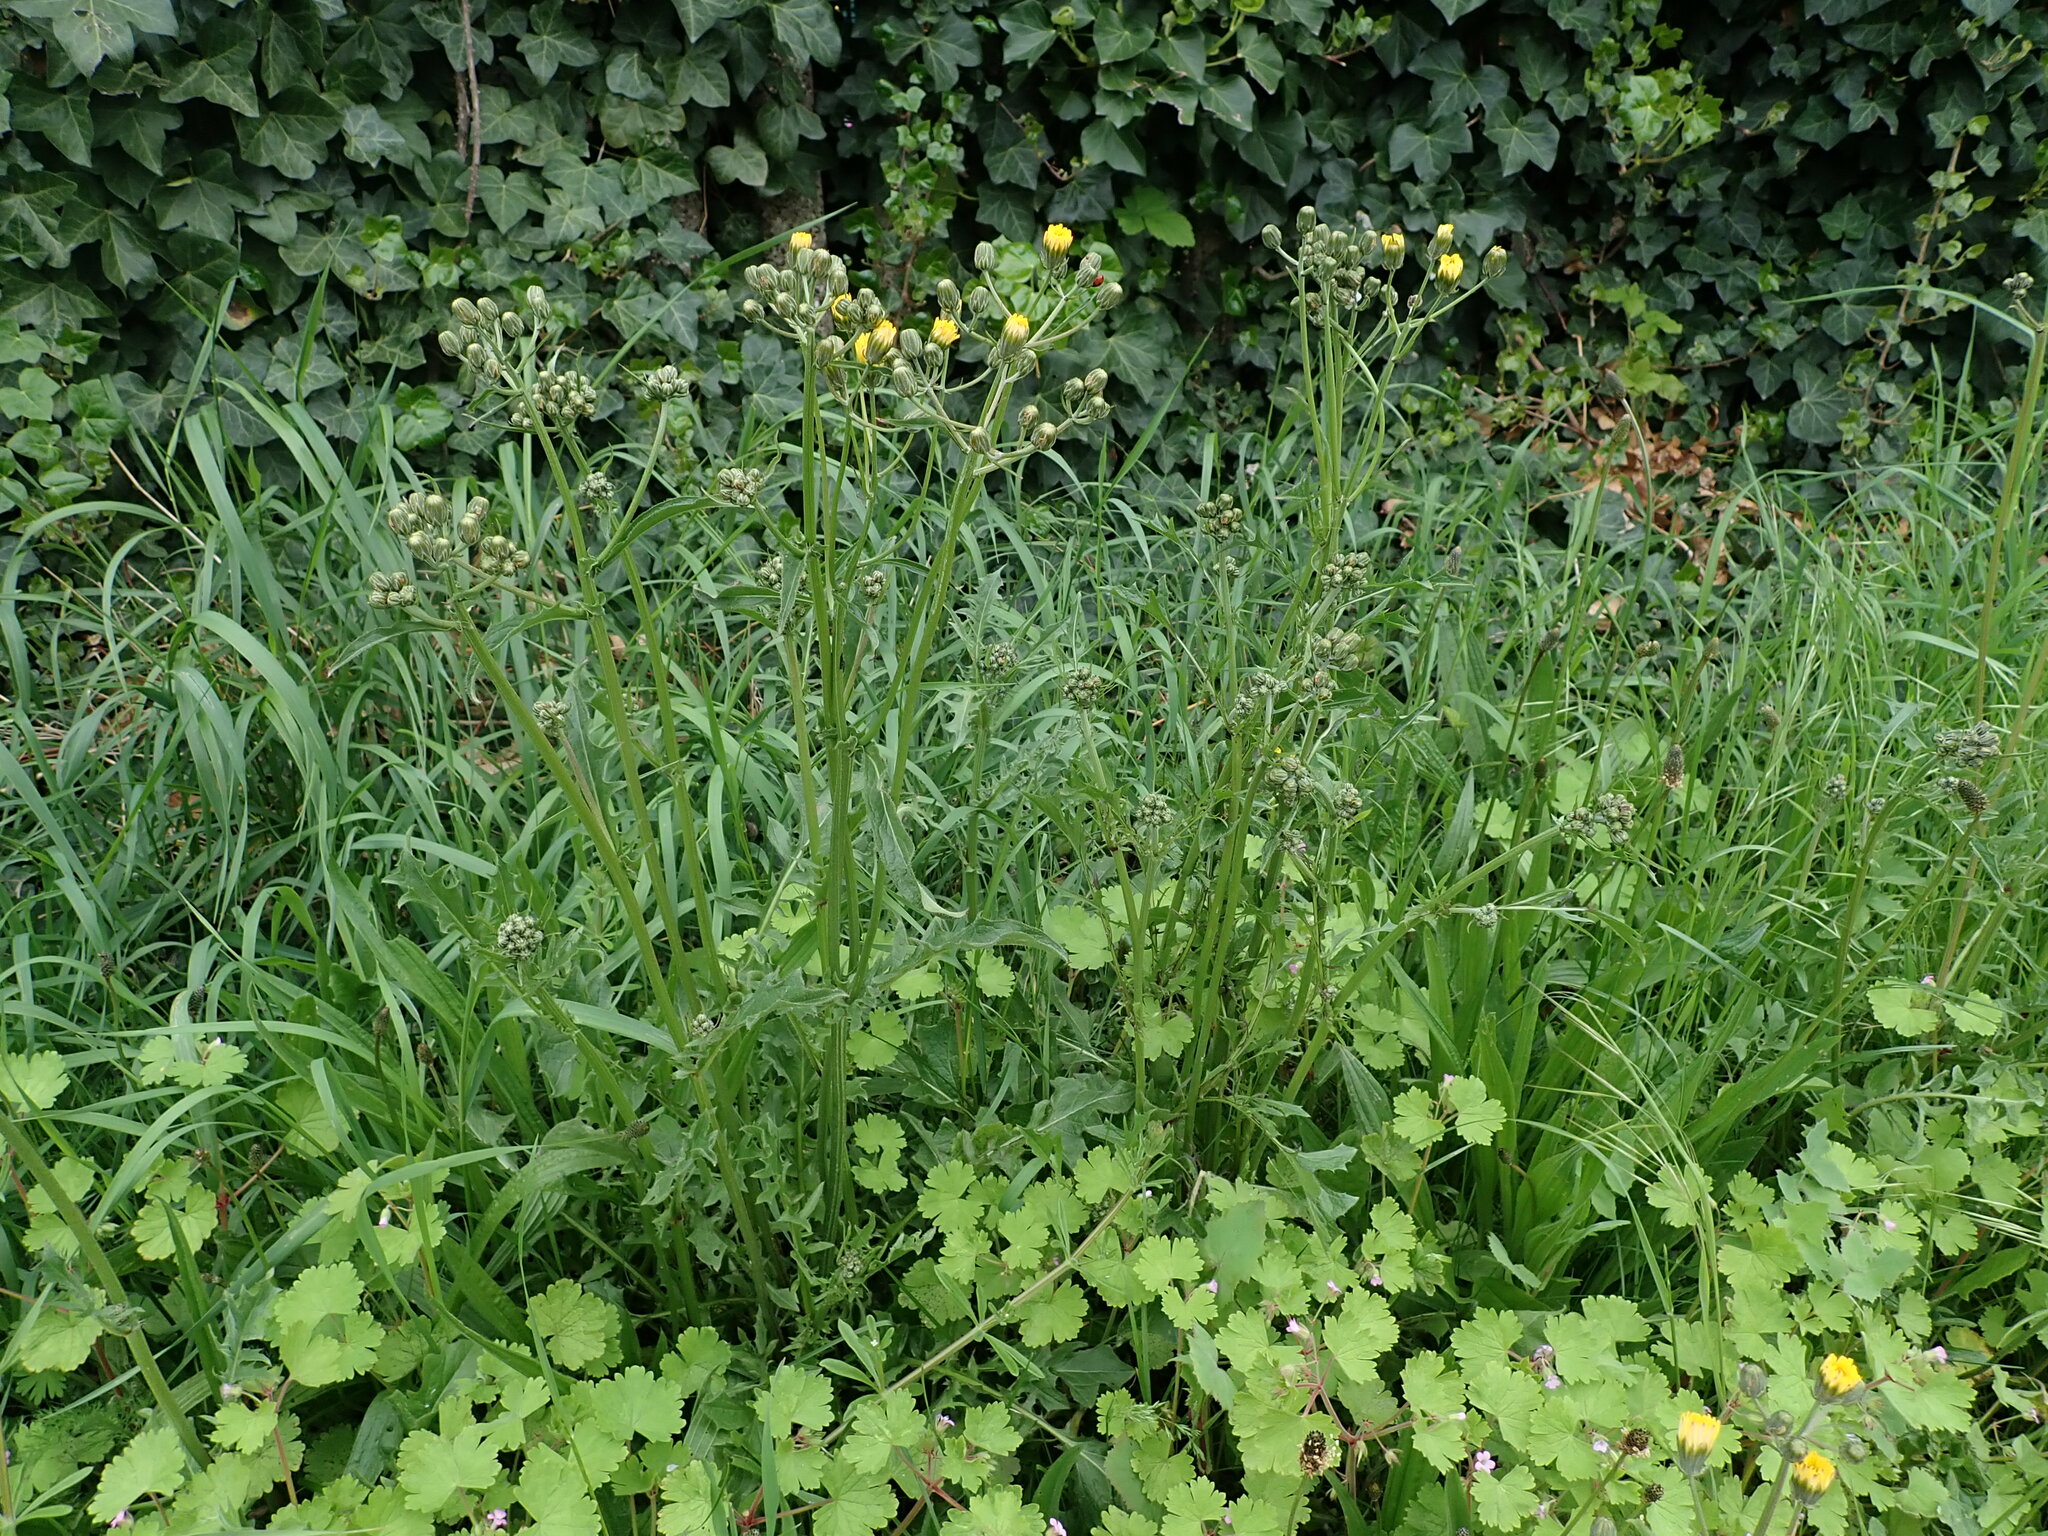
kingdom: Plantae
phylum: Tracheophyta
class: Magnoliopsida
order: Asterales
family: Asteraceae
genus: Crepis
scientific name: Crepis vesicaria
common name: Beaked hawksbeard
